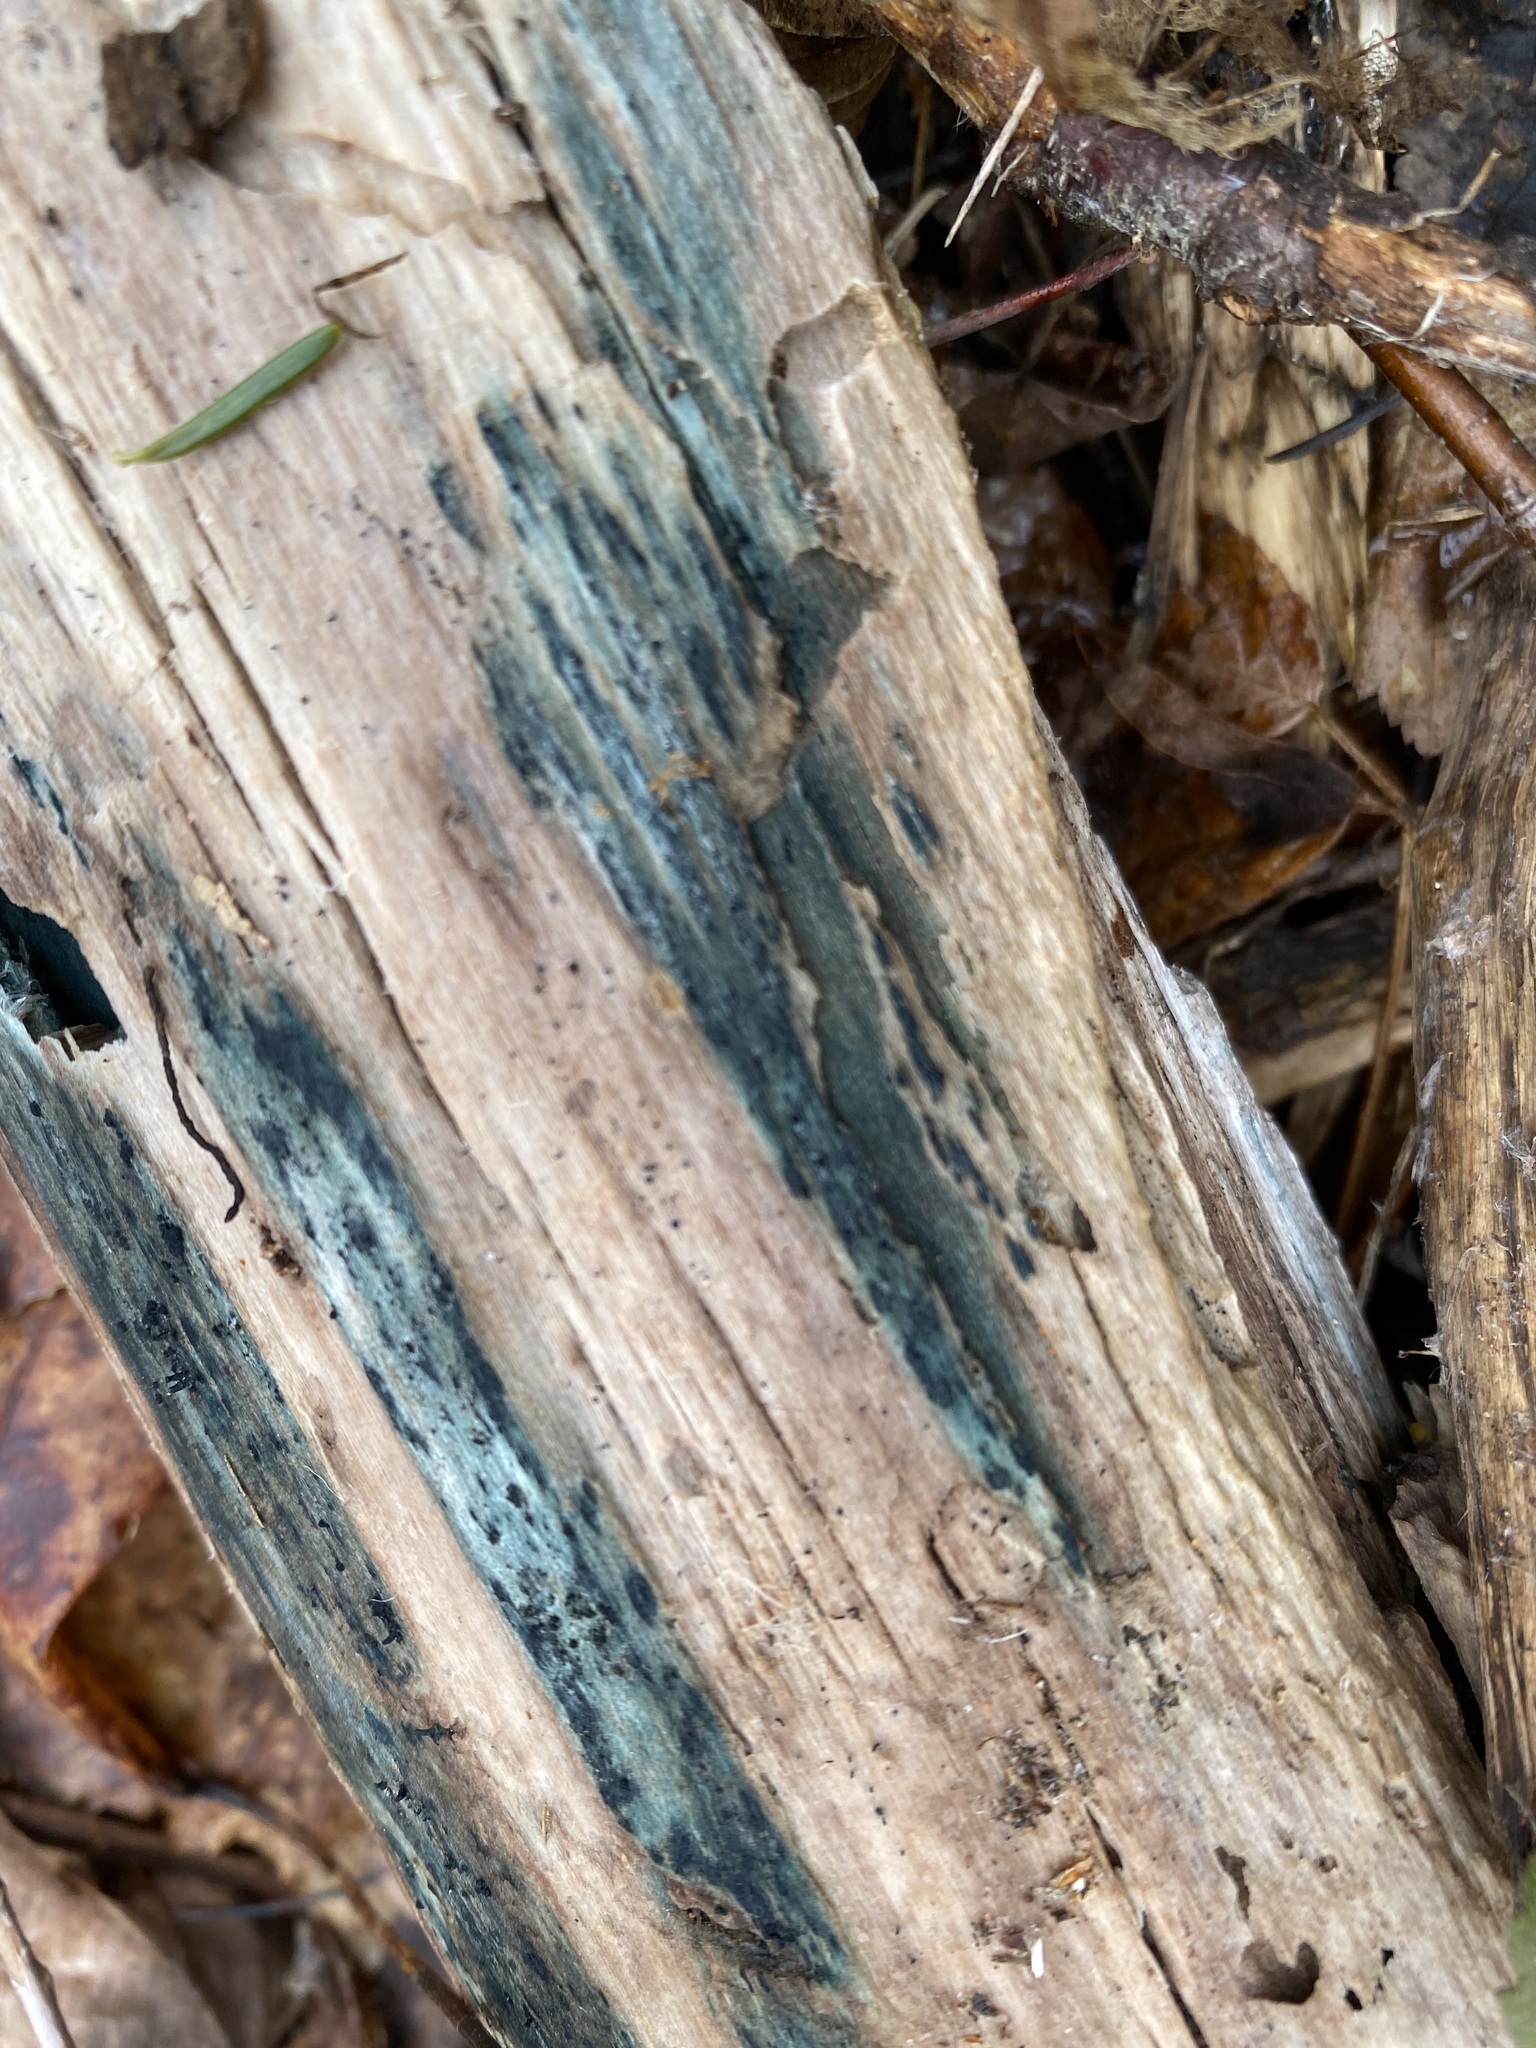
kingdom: Fungi
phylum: Ascomycota
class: Leotiomycetes
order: Helotiales
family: Chlorociboriaceae
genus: Chlorociboria
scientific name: Chlorociboria
